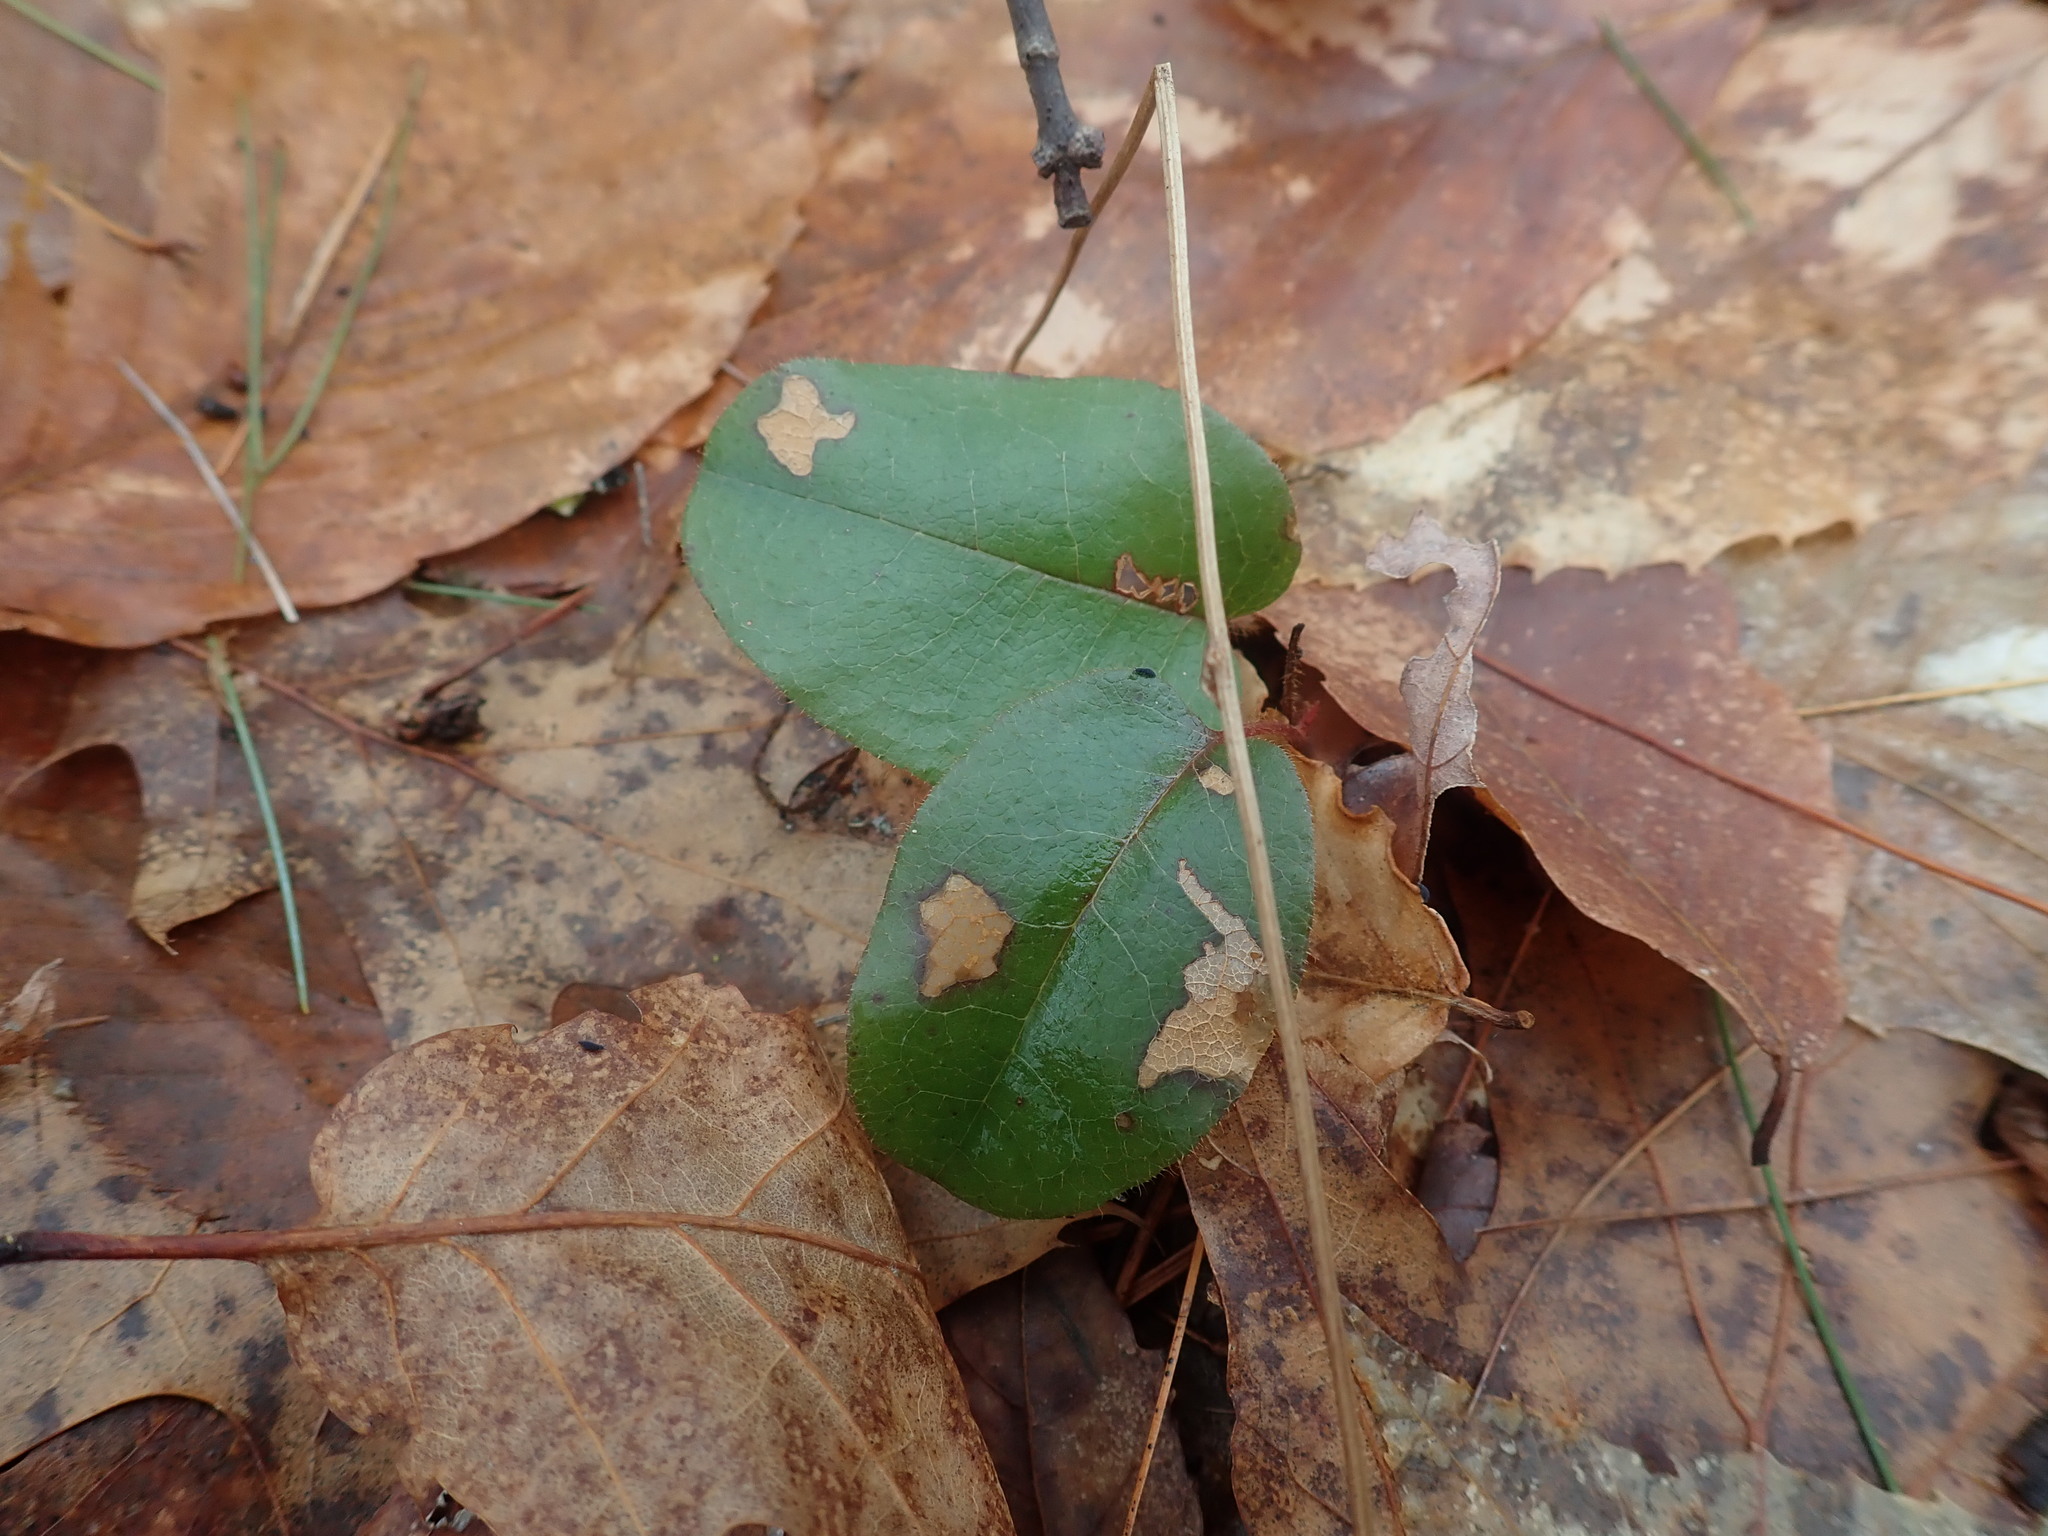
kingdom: Plantae
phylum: Tracheophyta
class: Magnoliopsida
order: Ericales
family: Ericaceae
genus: Epigaea
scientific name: Epigaea repens
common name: Gravelroot
